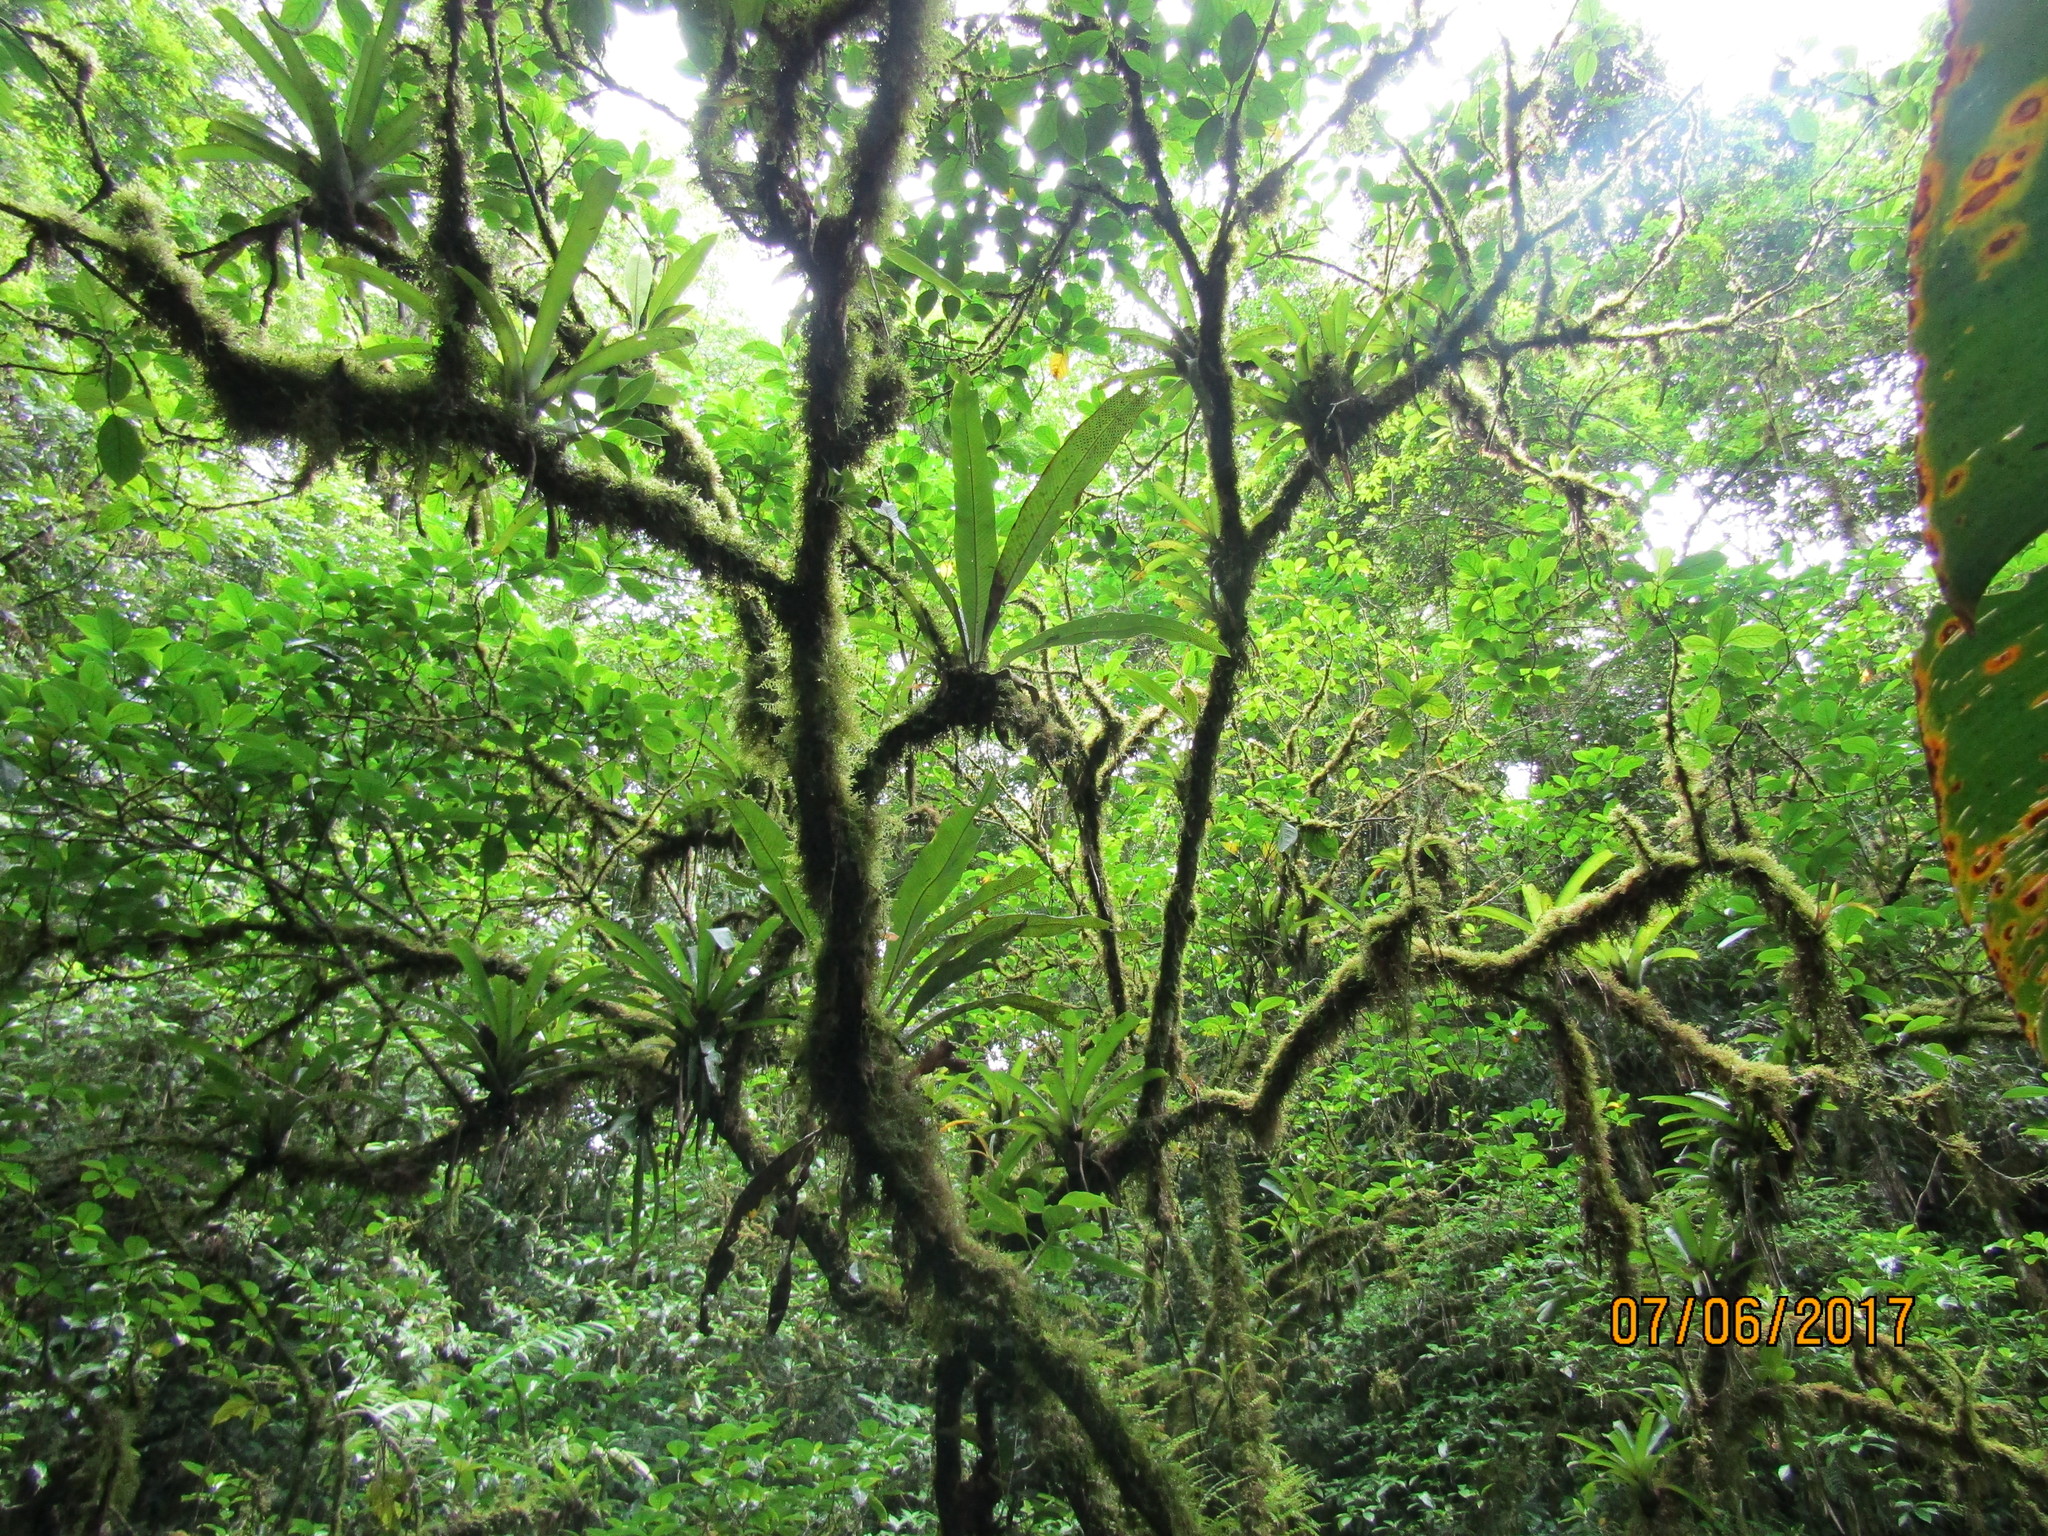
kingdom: Plantae
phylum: Tracheophyta
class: Polypodiopsida
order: Polypodiales
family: Polypodiaceae
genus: Niphidium
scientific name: Niphidium crassifolium
